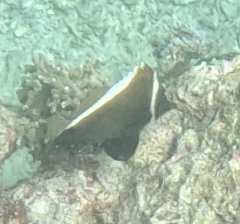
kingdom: Animalia
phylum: Chordata
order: Perciformes
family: Chaetodontidae
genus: Heniochus
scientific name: Heniochus varius
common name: Horned bannerfish
